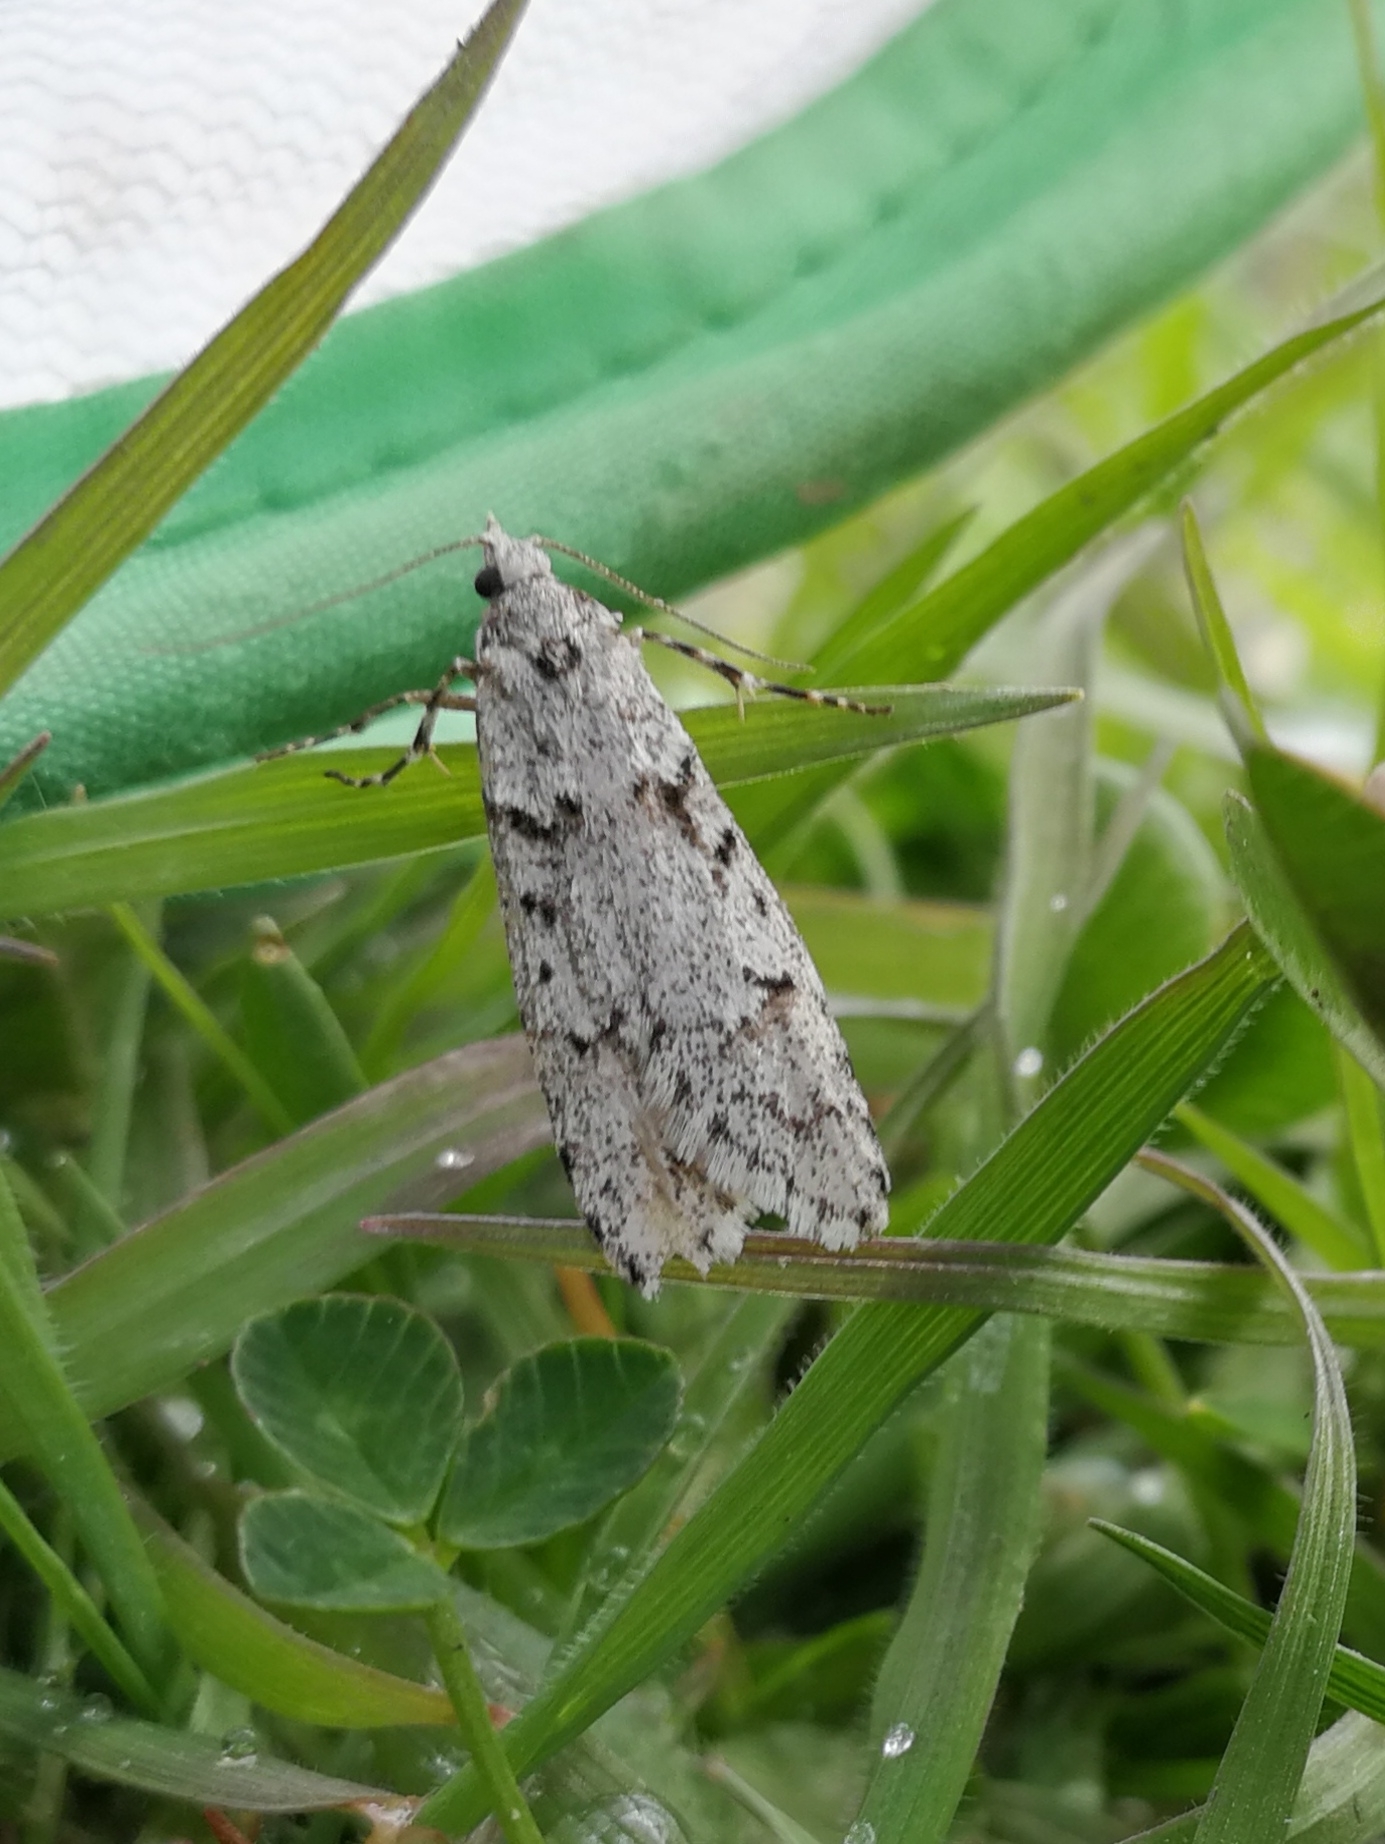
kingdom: Animalia
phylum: Arthropoda
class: Insecta
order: Lepidoptera
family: Lypusidae
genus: Diurnea
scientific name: Diurnea fagella
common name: March tubic
